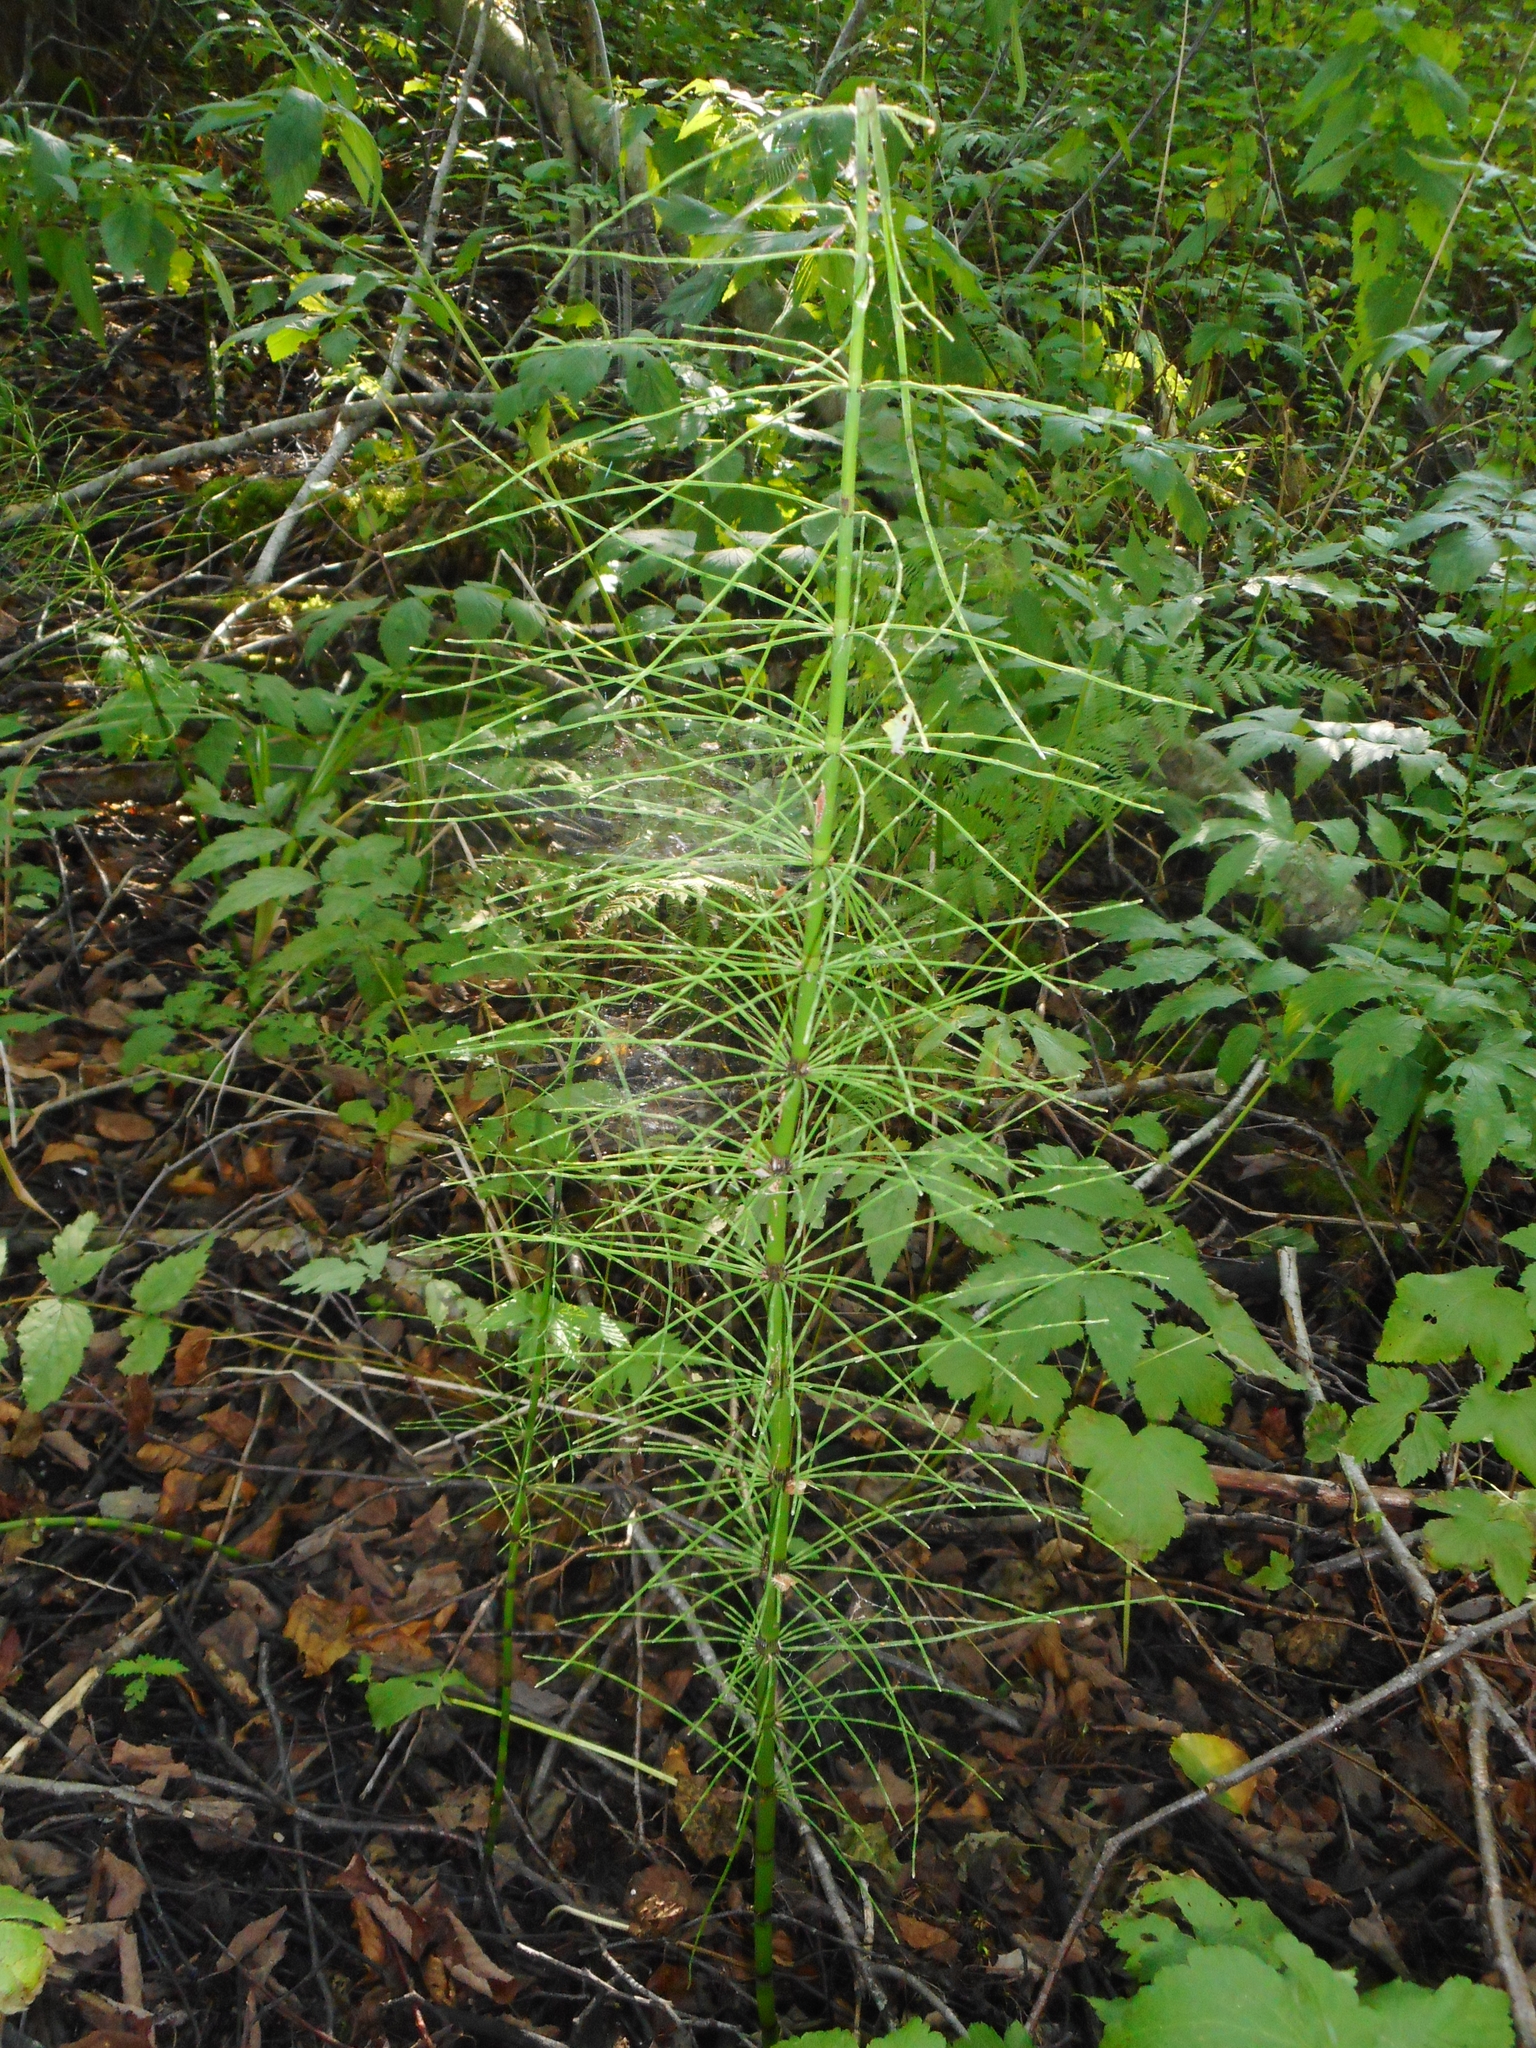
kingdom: Plantae
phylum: Tracheophyta
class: Polypodiopsida
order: Equisetales
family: Equisetaceae
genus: Equisetum
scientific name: Equisetum fluviatile
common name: Water horsetail
